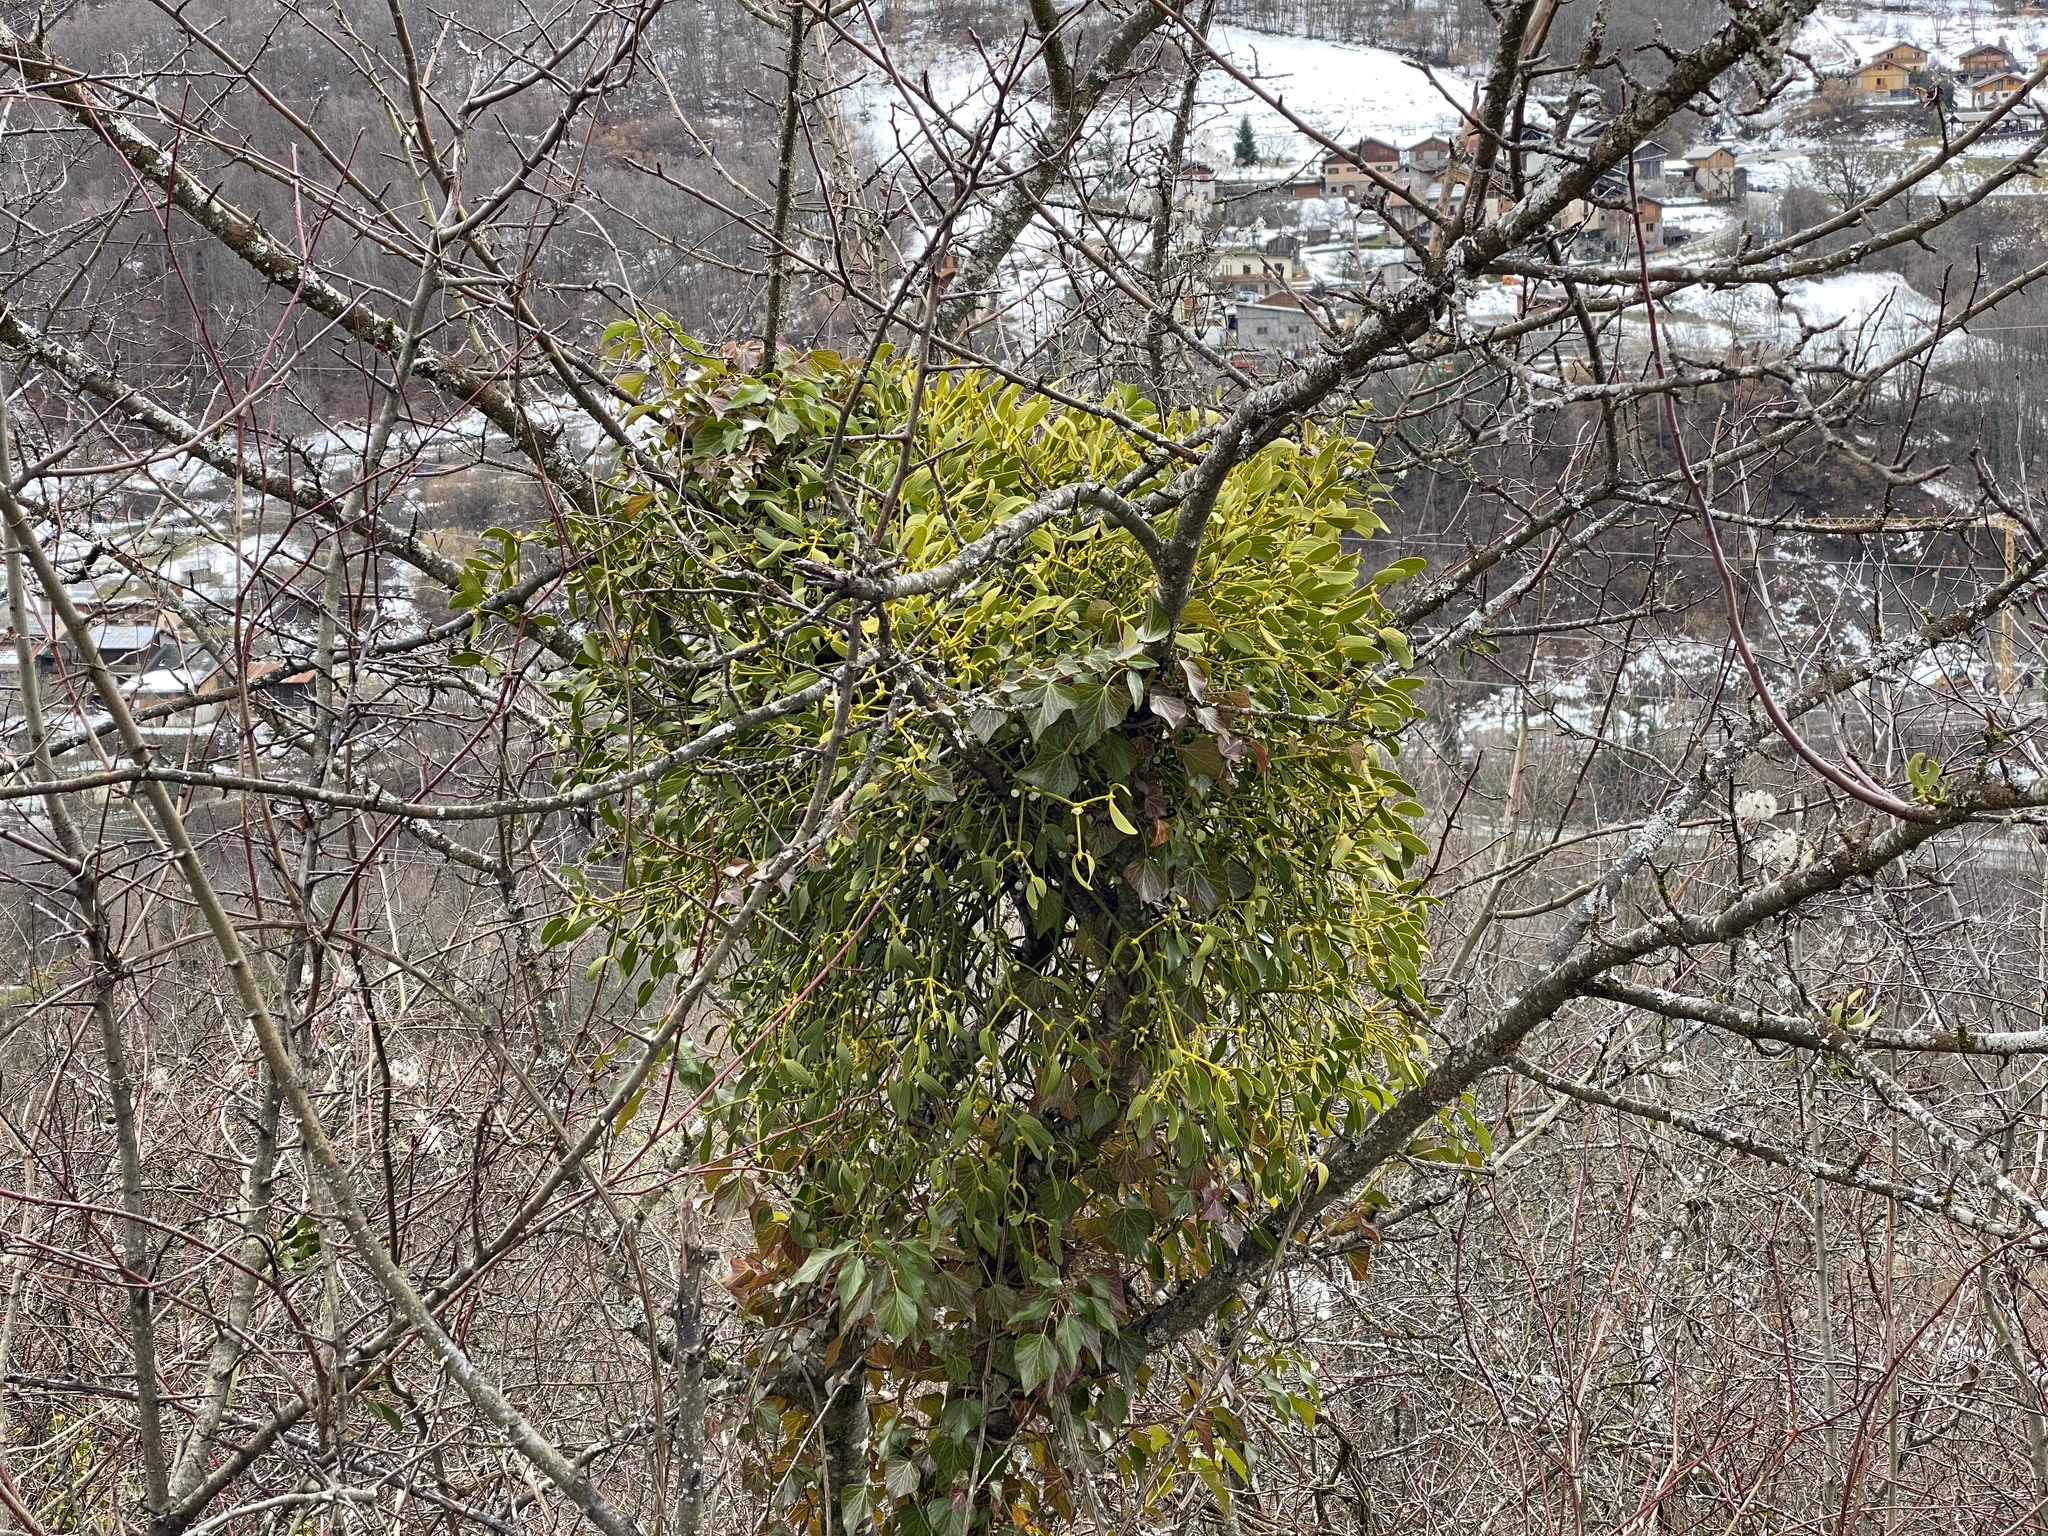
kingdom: Plantae
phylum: Tracheophyta
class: Magnoliopsida
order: Santalales
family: Viscaceae
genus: Viscum
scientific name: Viscum album
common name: Mistletoe
